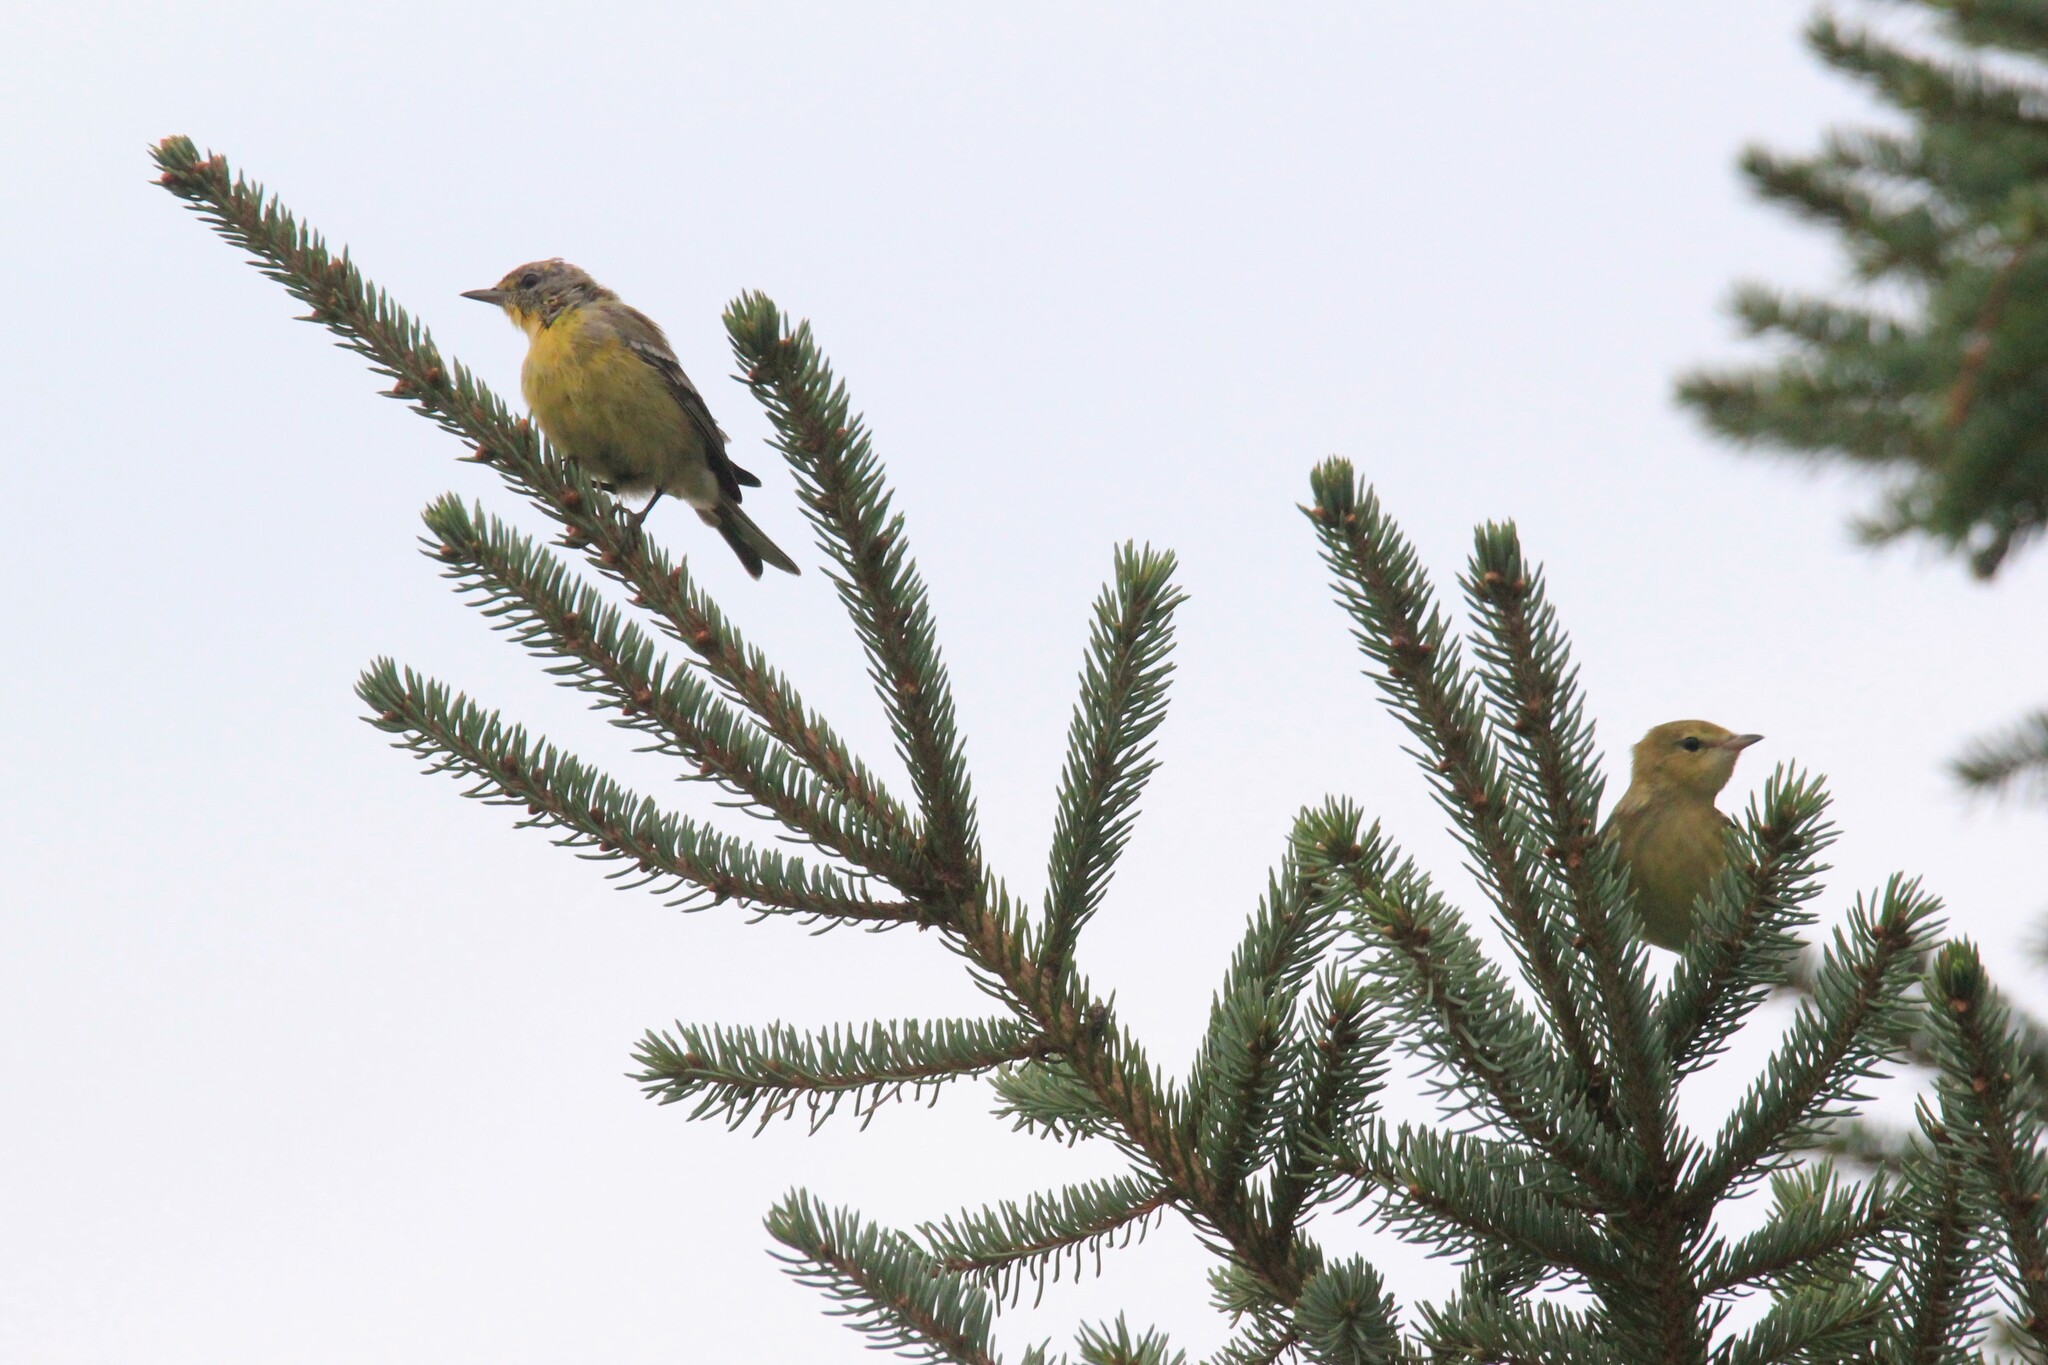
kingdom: Animalia
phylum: Chordata
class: Aves
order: Passeriformes
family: Parulidae
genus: Setophaga
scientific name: Setophaga pinus
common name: Pine warbler
